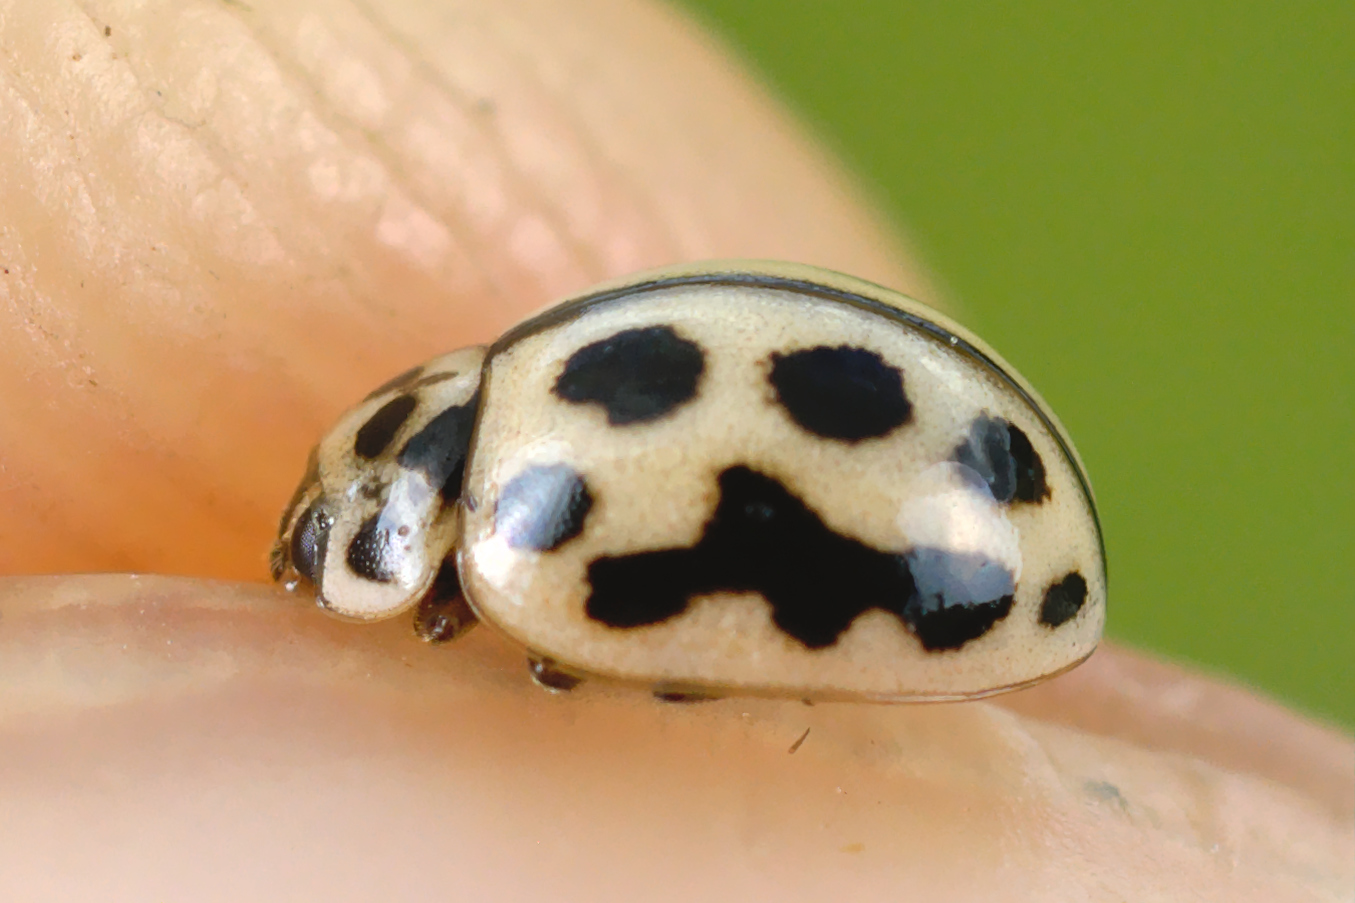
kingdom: Animalia
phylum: Arthropoda
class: Insecta
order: Coleoptera
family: Coccinellidae
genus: Tytthaspis
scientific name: Tytthaspis sedecimpunctata
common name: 16-spot ladybird
